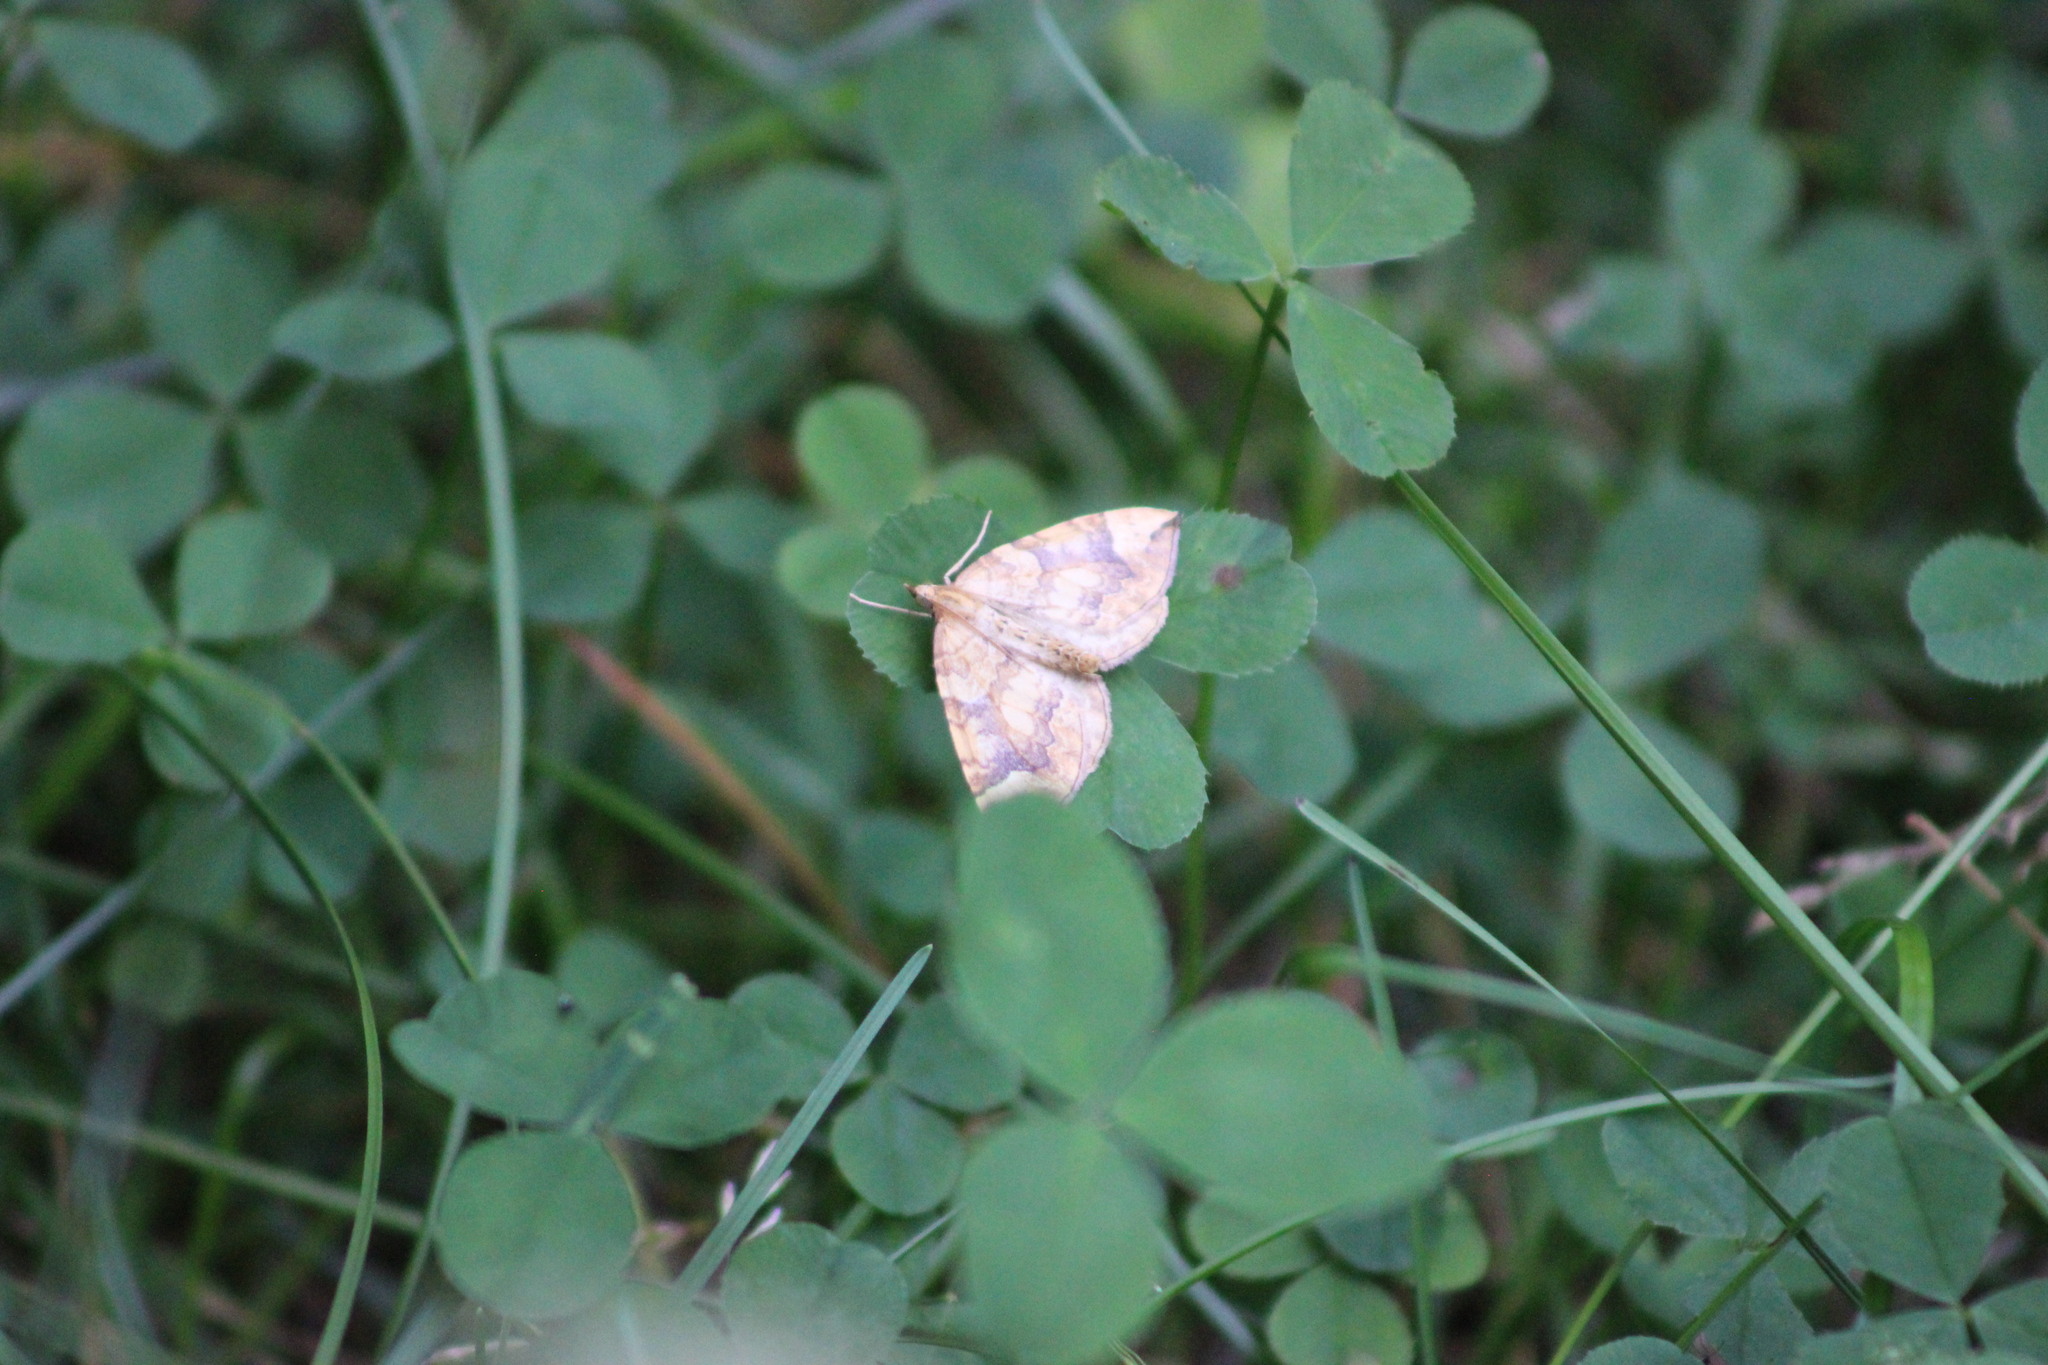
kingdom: Animalia
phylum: Arthropoda
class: Insecta
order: Lepidoptera
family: Geometridae
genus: Eulithis
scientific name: Eulithis populata
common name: Northern spinach
